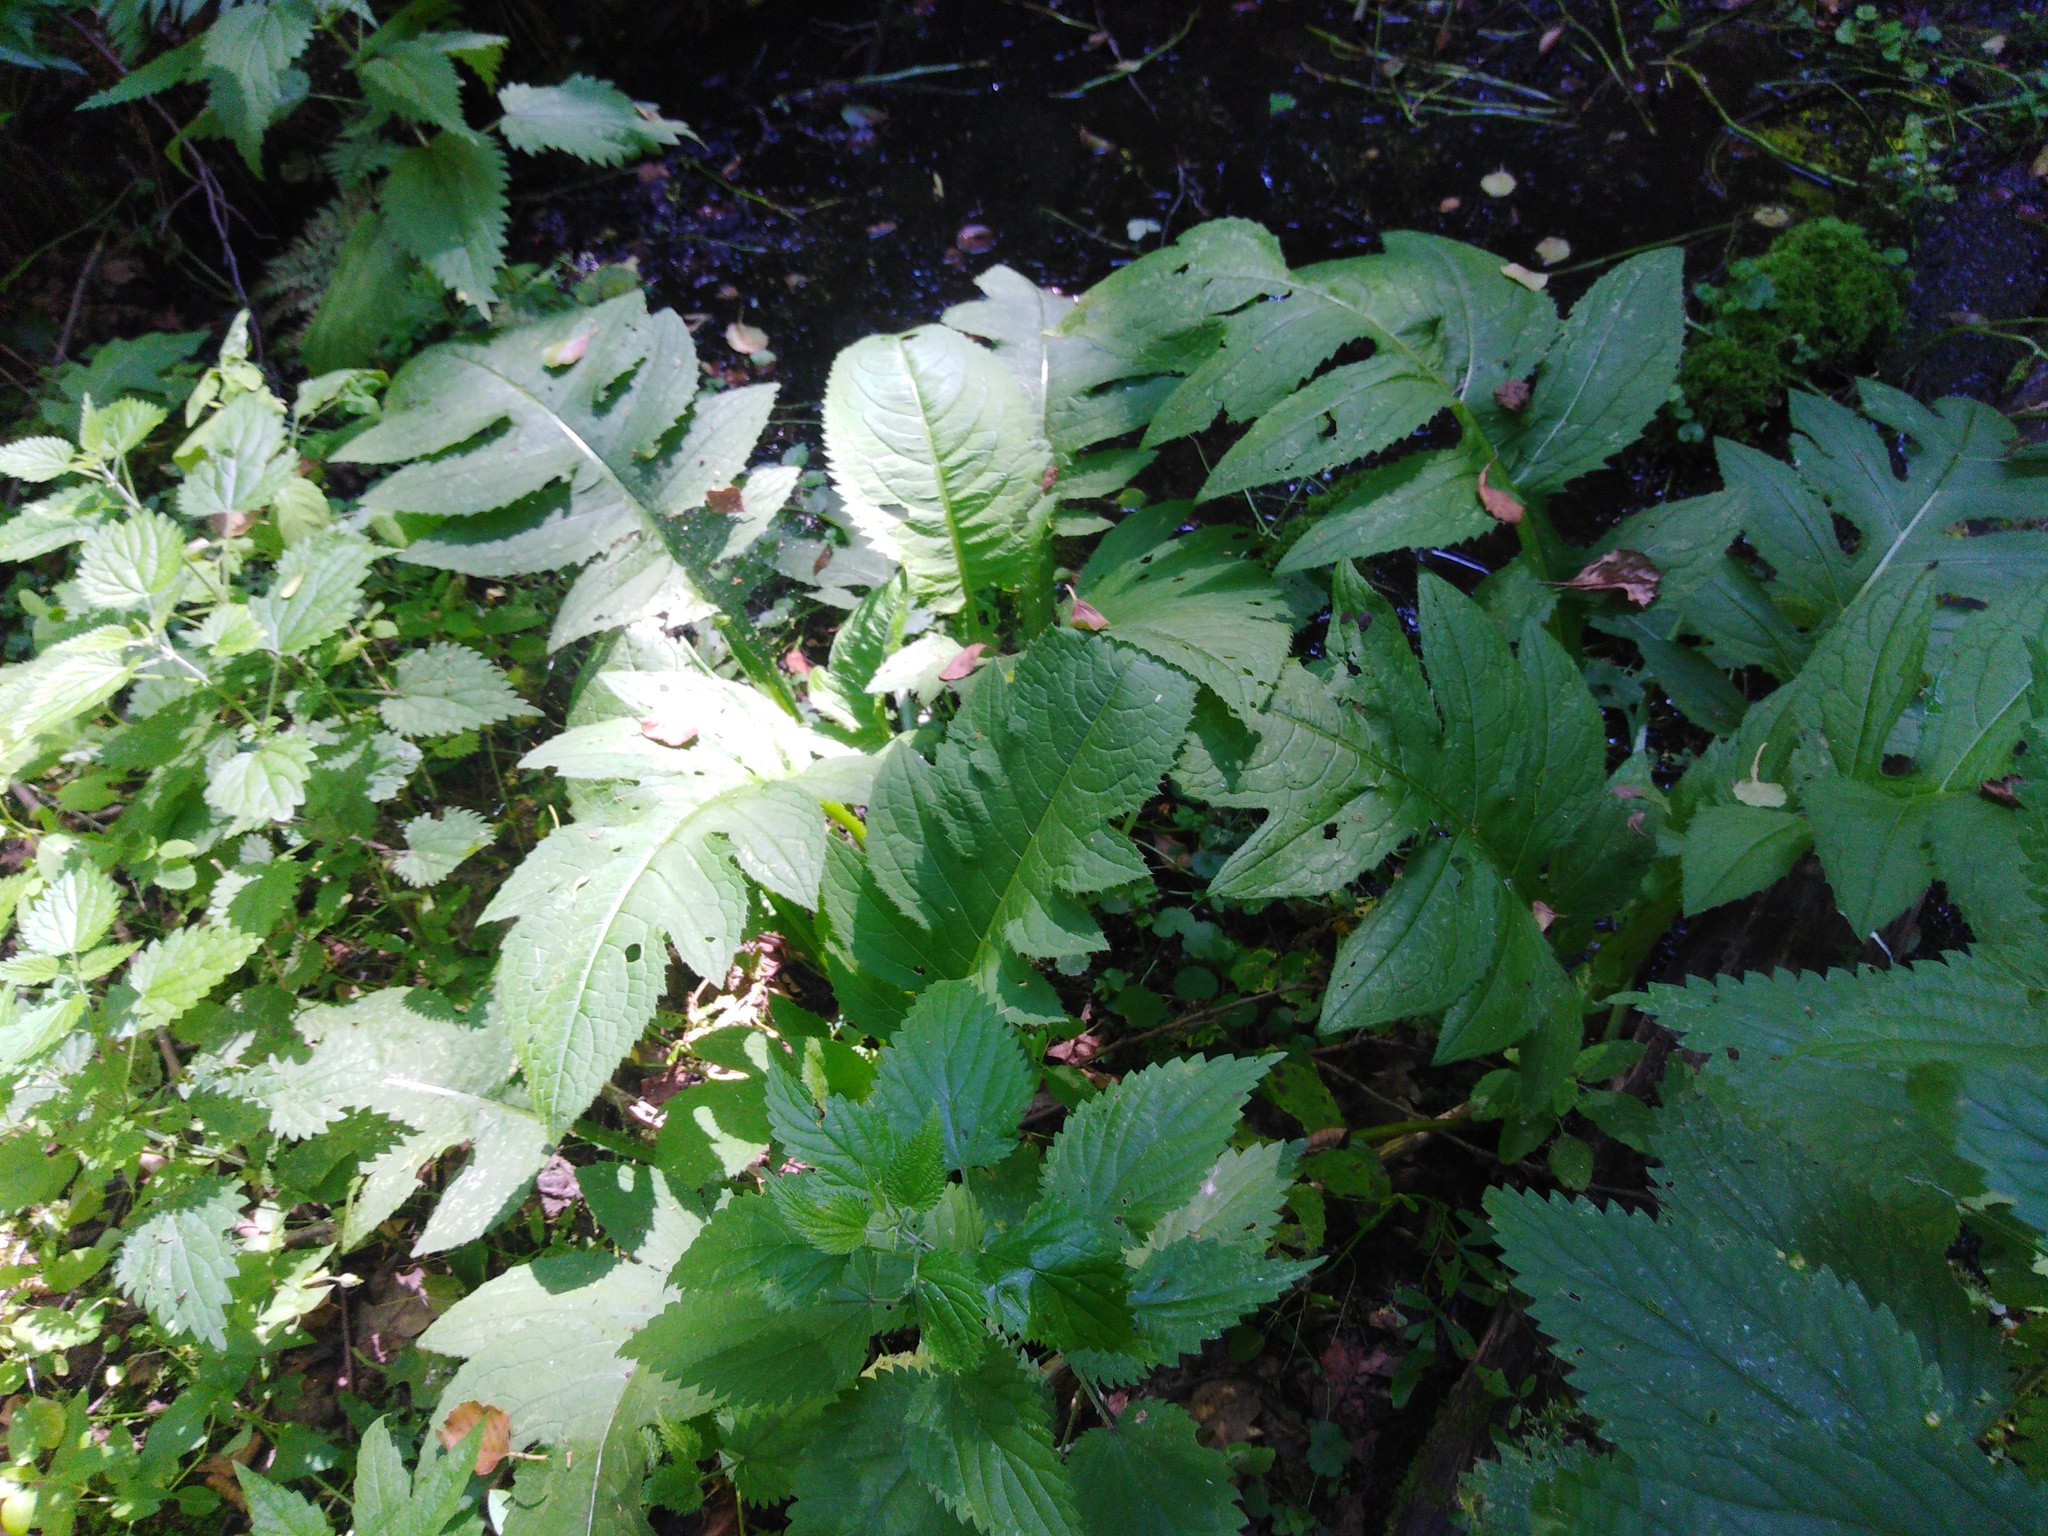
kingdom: Plantae
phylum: Tracheophyta
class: Magnoliopsida
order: Asterales
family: Asteraceae
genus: Cirsium
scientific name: Cirsium oleraceum
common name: Cabbage thistle
